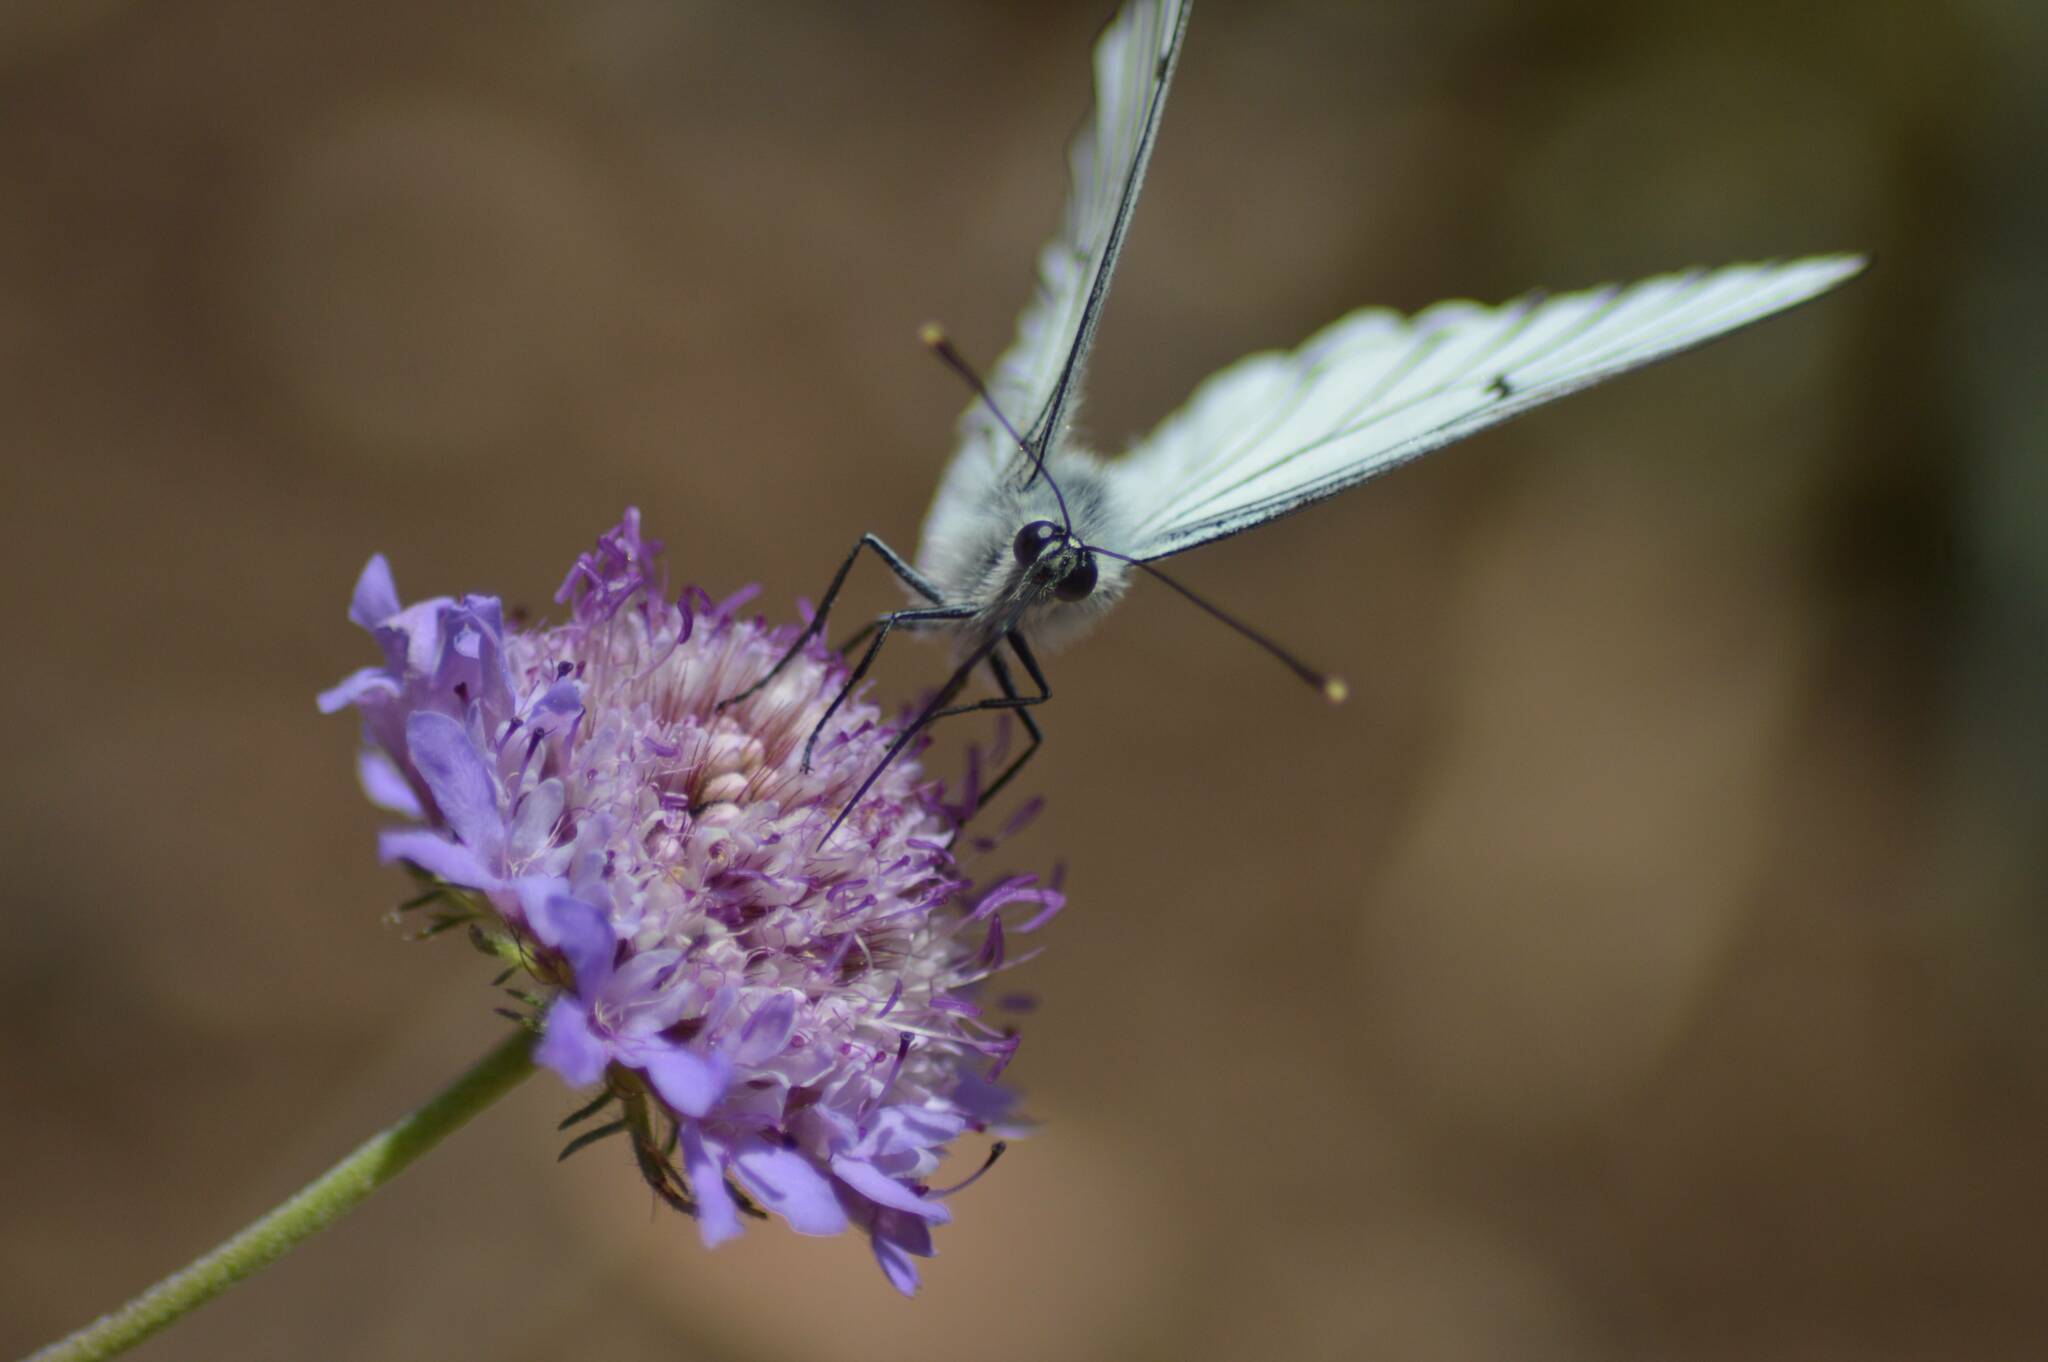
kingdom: Animalia
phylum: Arthropoda
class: Insecta
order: Lepidoptera
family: Pieridae
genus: Aporia
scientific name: Aporia crataegi
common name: Black-veined white
